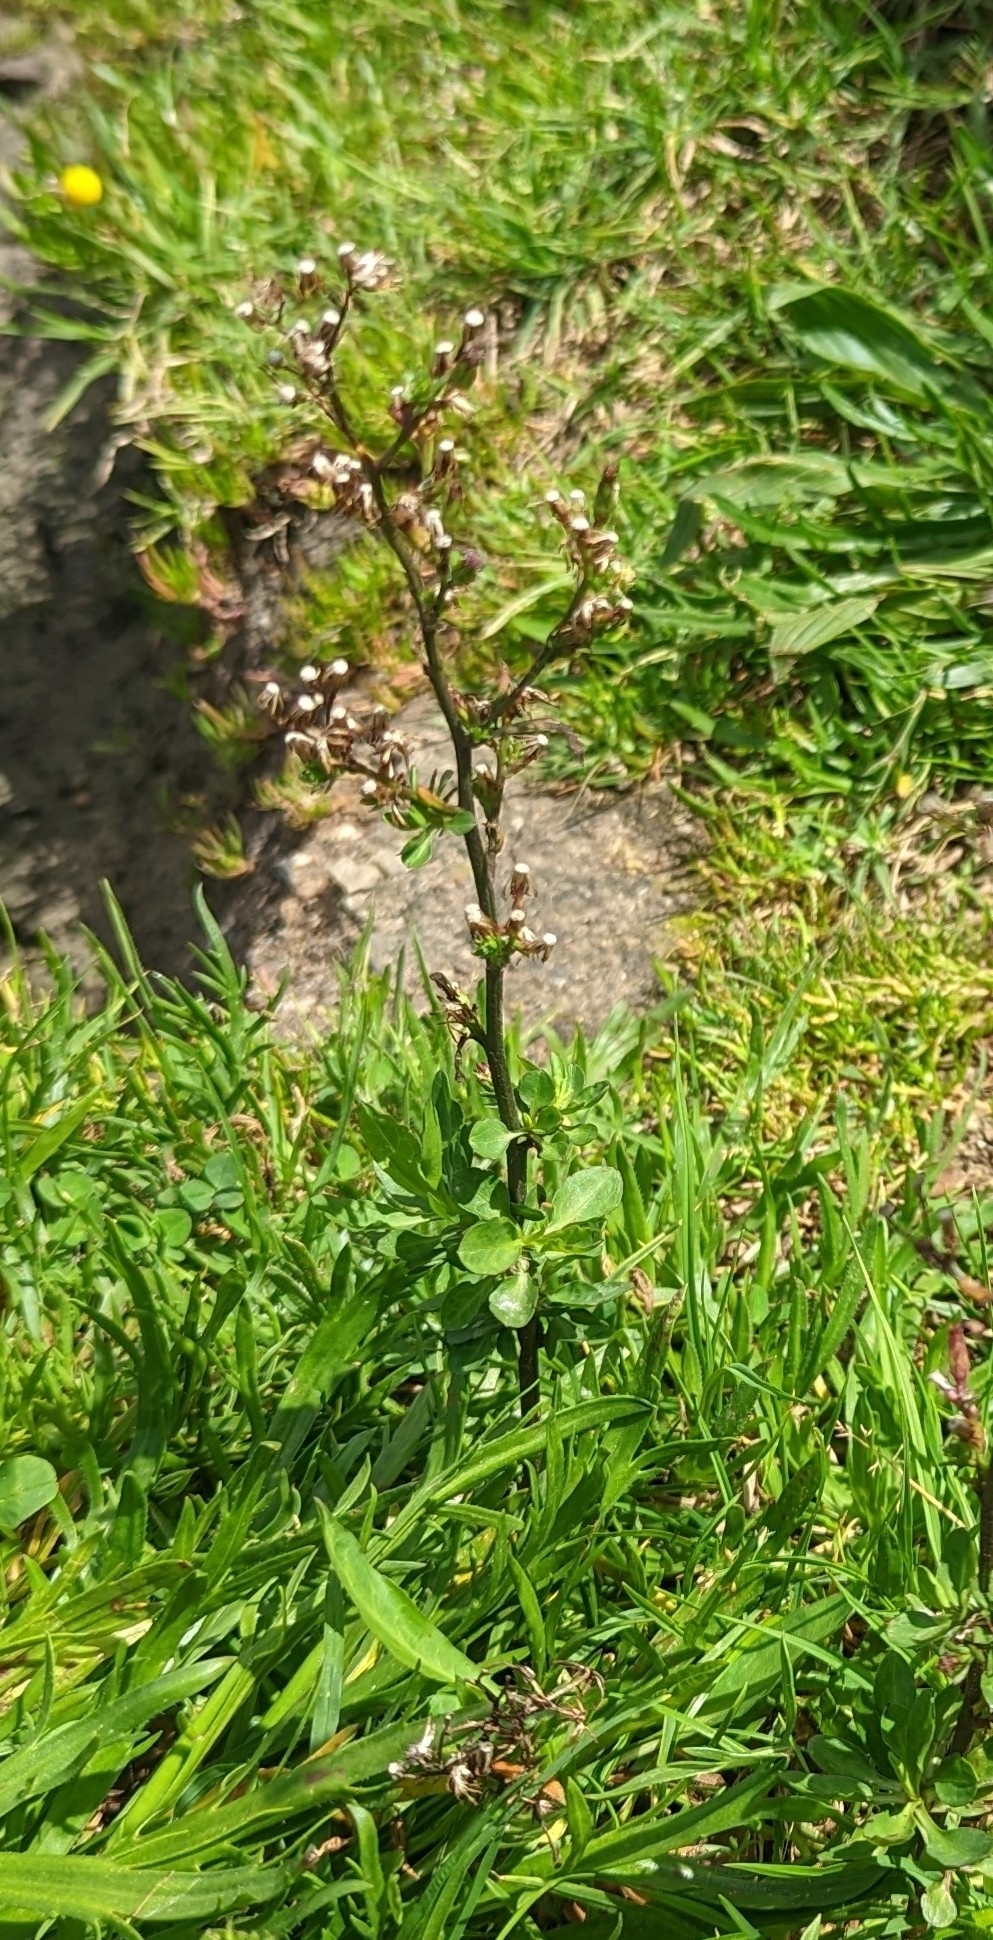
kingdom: Plantae
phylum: Tracheophyta
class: Magnoliopsida
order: Asterales
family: Asteraceae
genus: Symphyotrichum
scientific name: Symphyotrichum subulatum
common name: Annual saltmarsh aster
